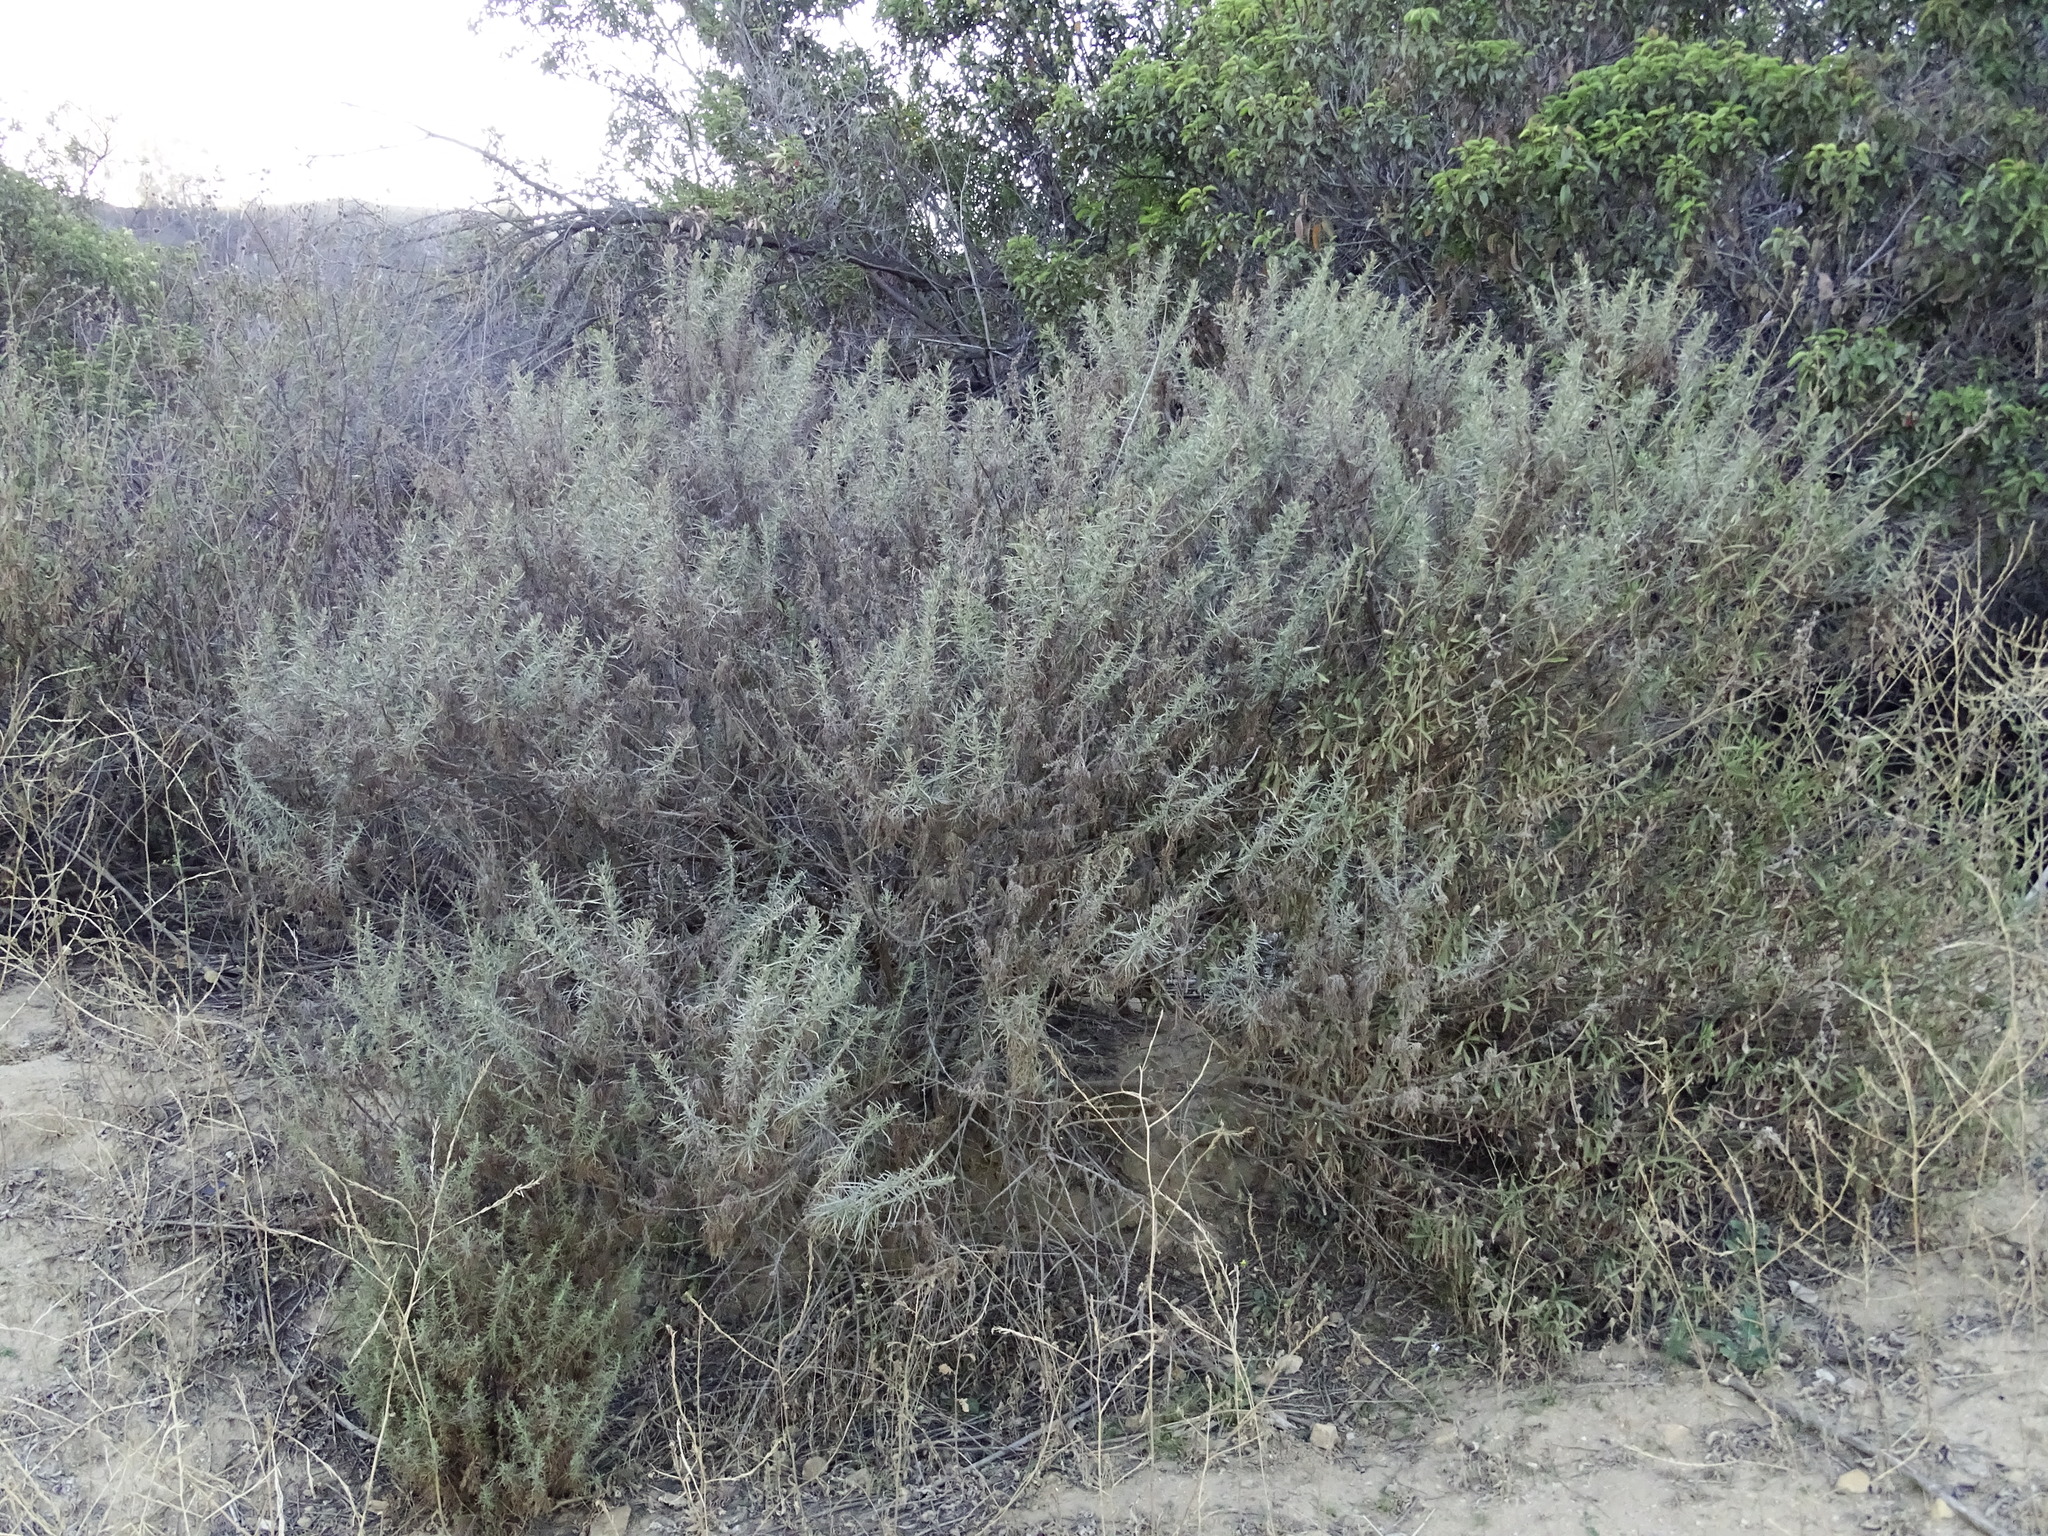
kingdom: Plantae
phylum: Tracheophyta
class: Magnoliopsida
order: Asterales
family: Asteraceae
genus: Artemisia
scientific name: Artemisia californica
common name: California sagebrush
